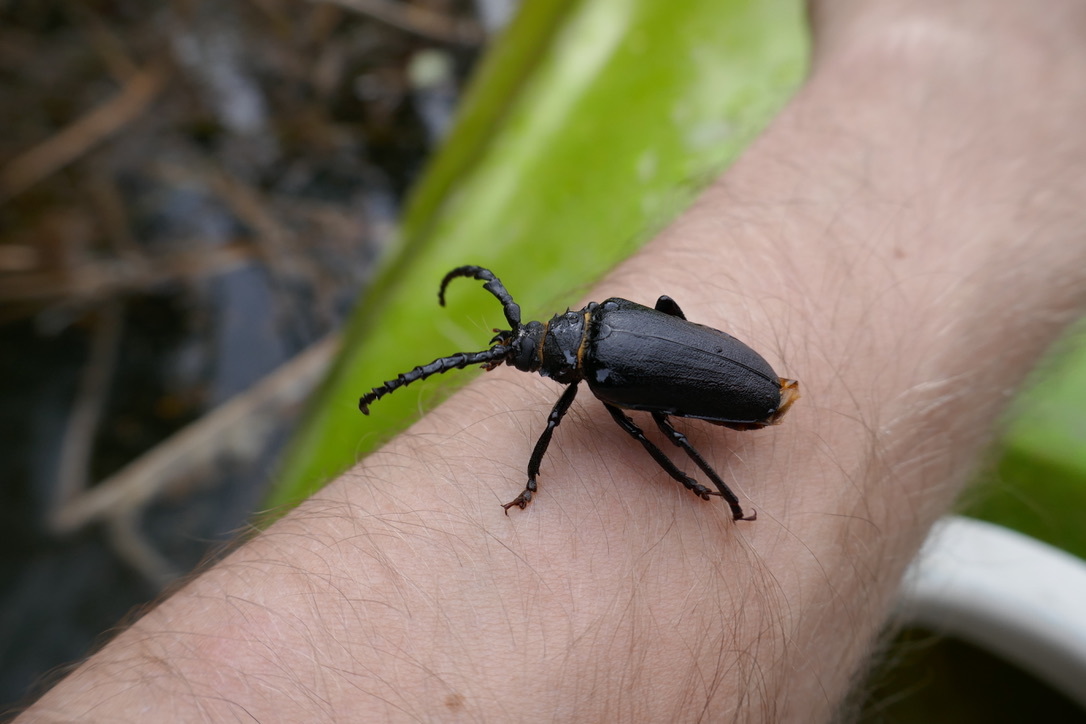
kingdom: Animalia
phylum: Arthropoda
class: Insecta
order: Coleoptera
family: Cerambycidae
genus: Prionus
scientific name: Prionus coriarius
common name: Tanner beetle
